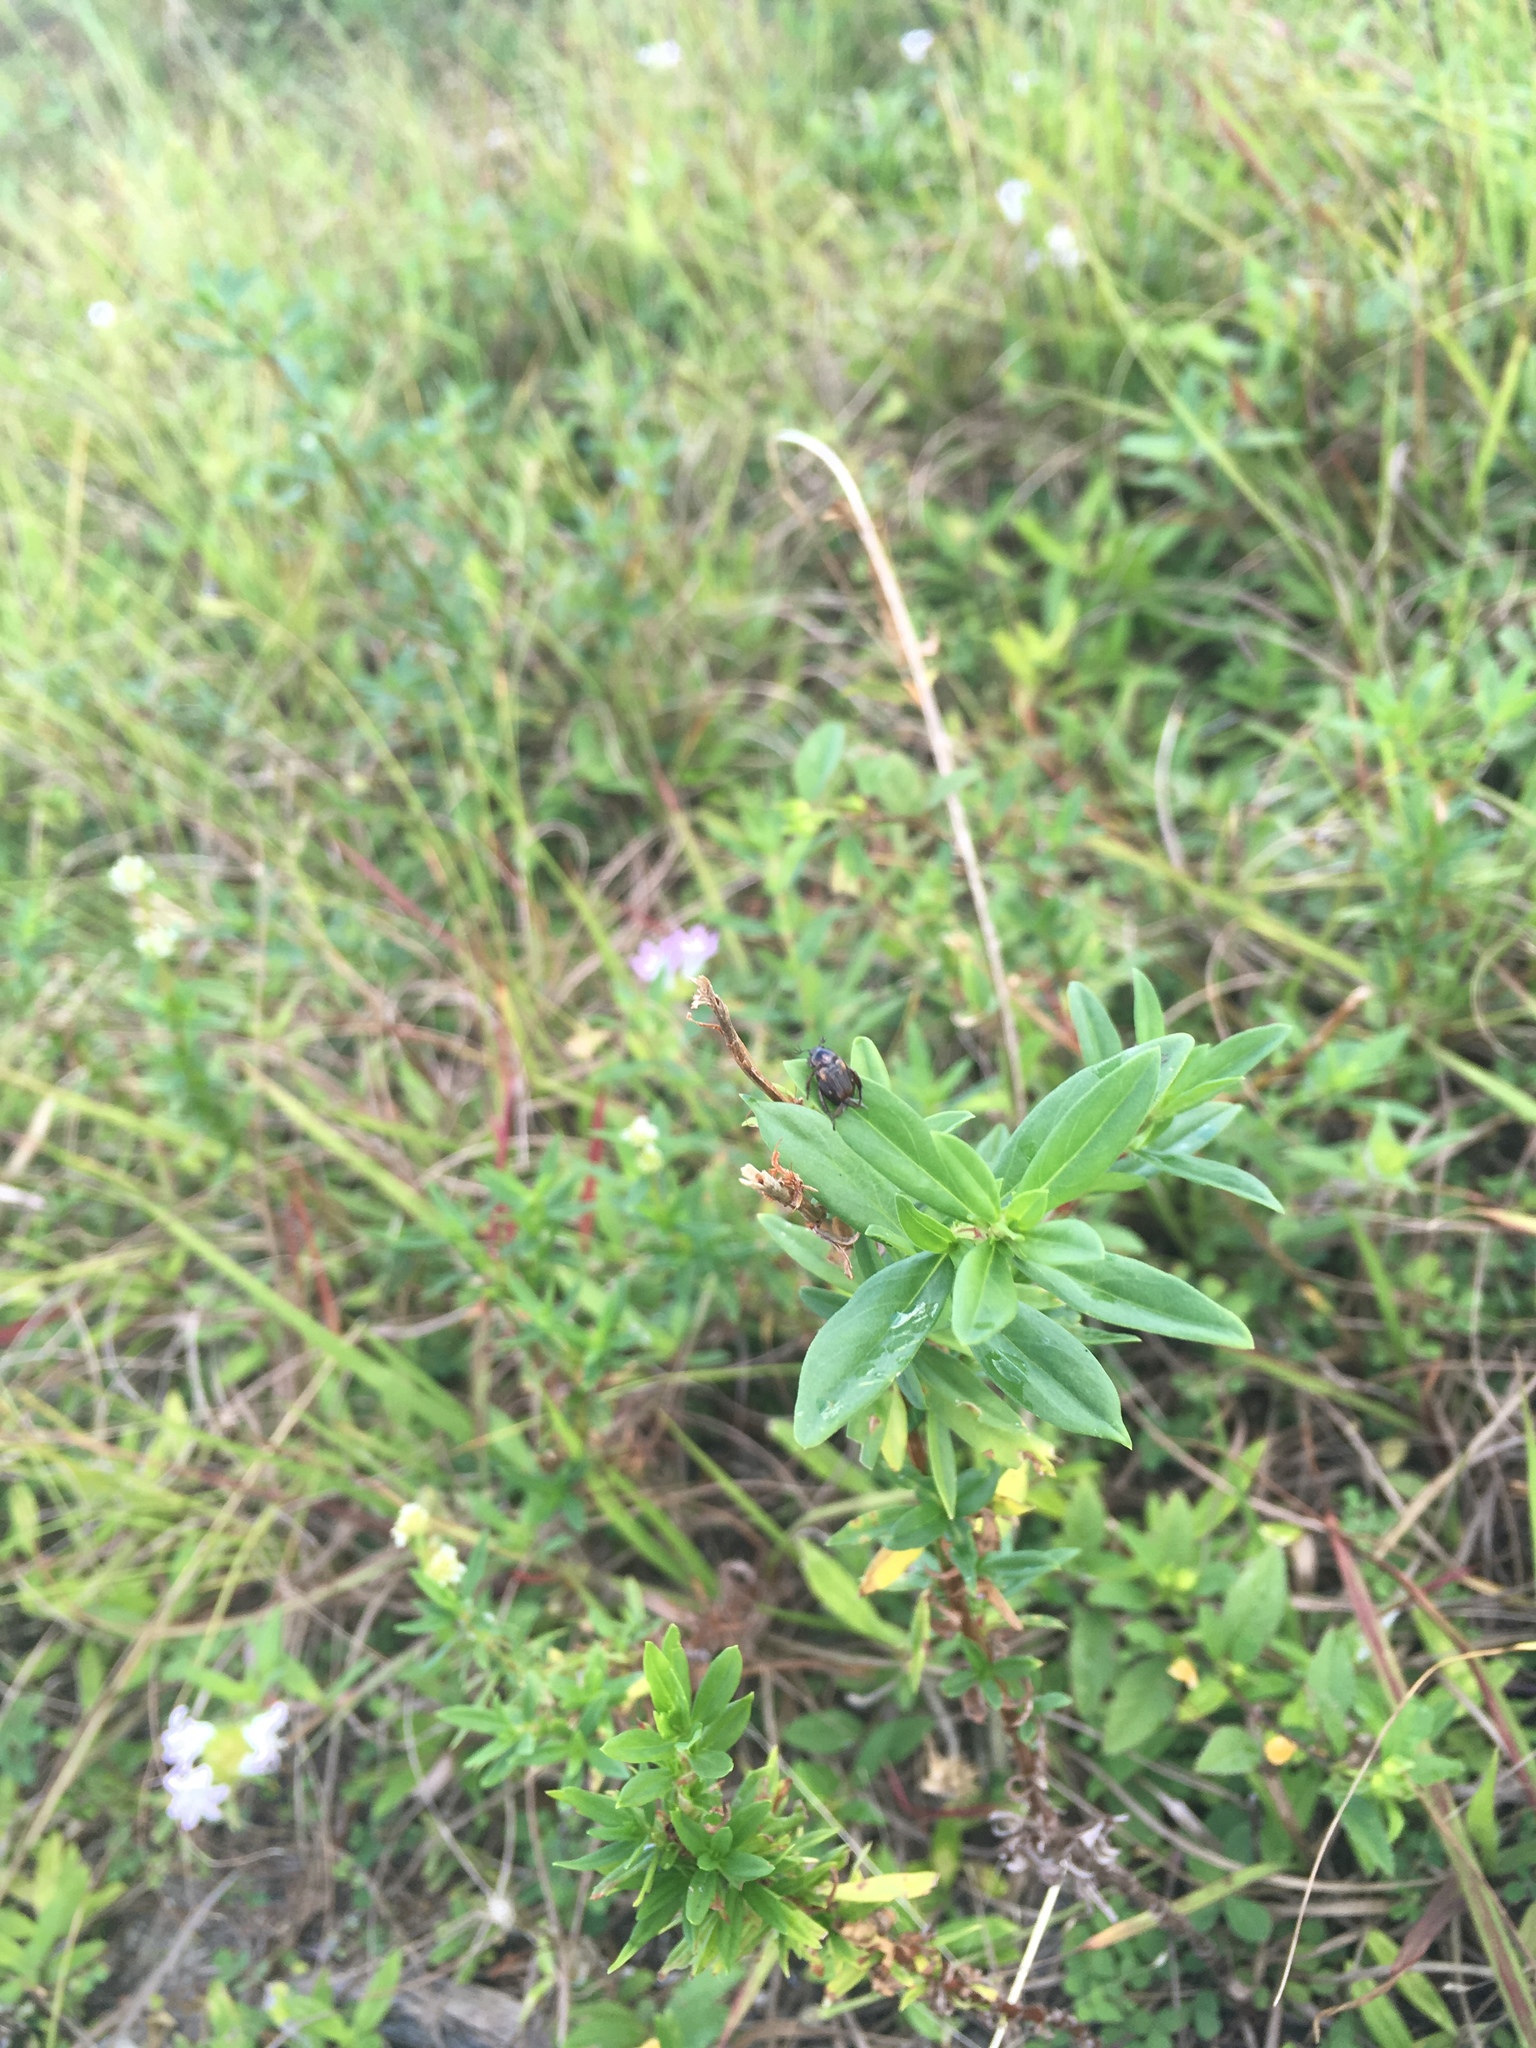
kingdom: Animalia
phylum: Arthropoda
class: Insecta
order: Coleoptera
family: Scarabaeidae
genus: Strigoderma
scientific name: Strigoderma pygmaea
